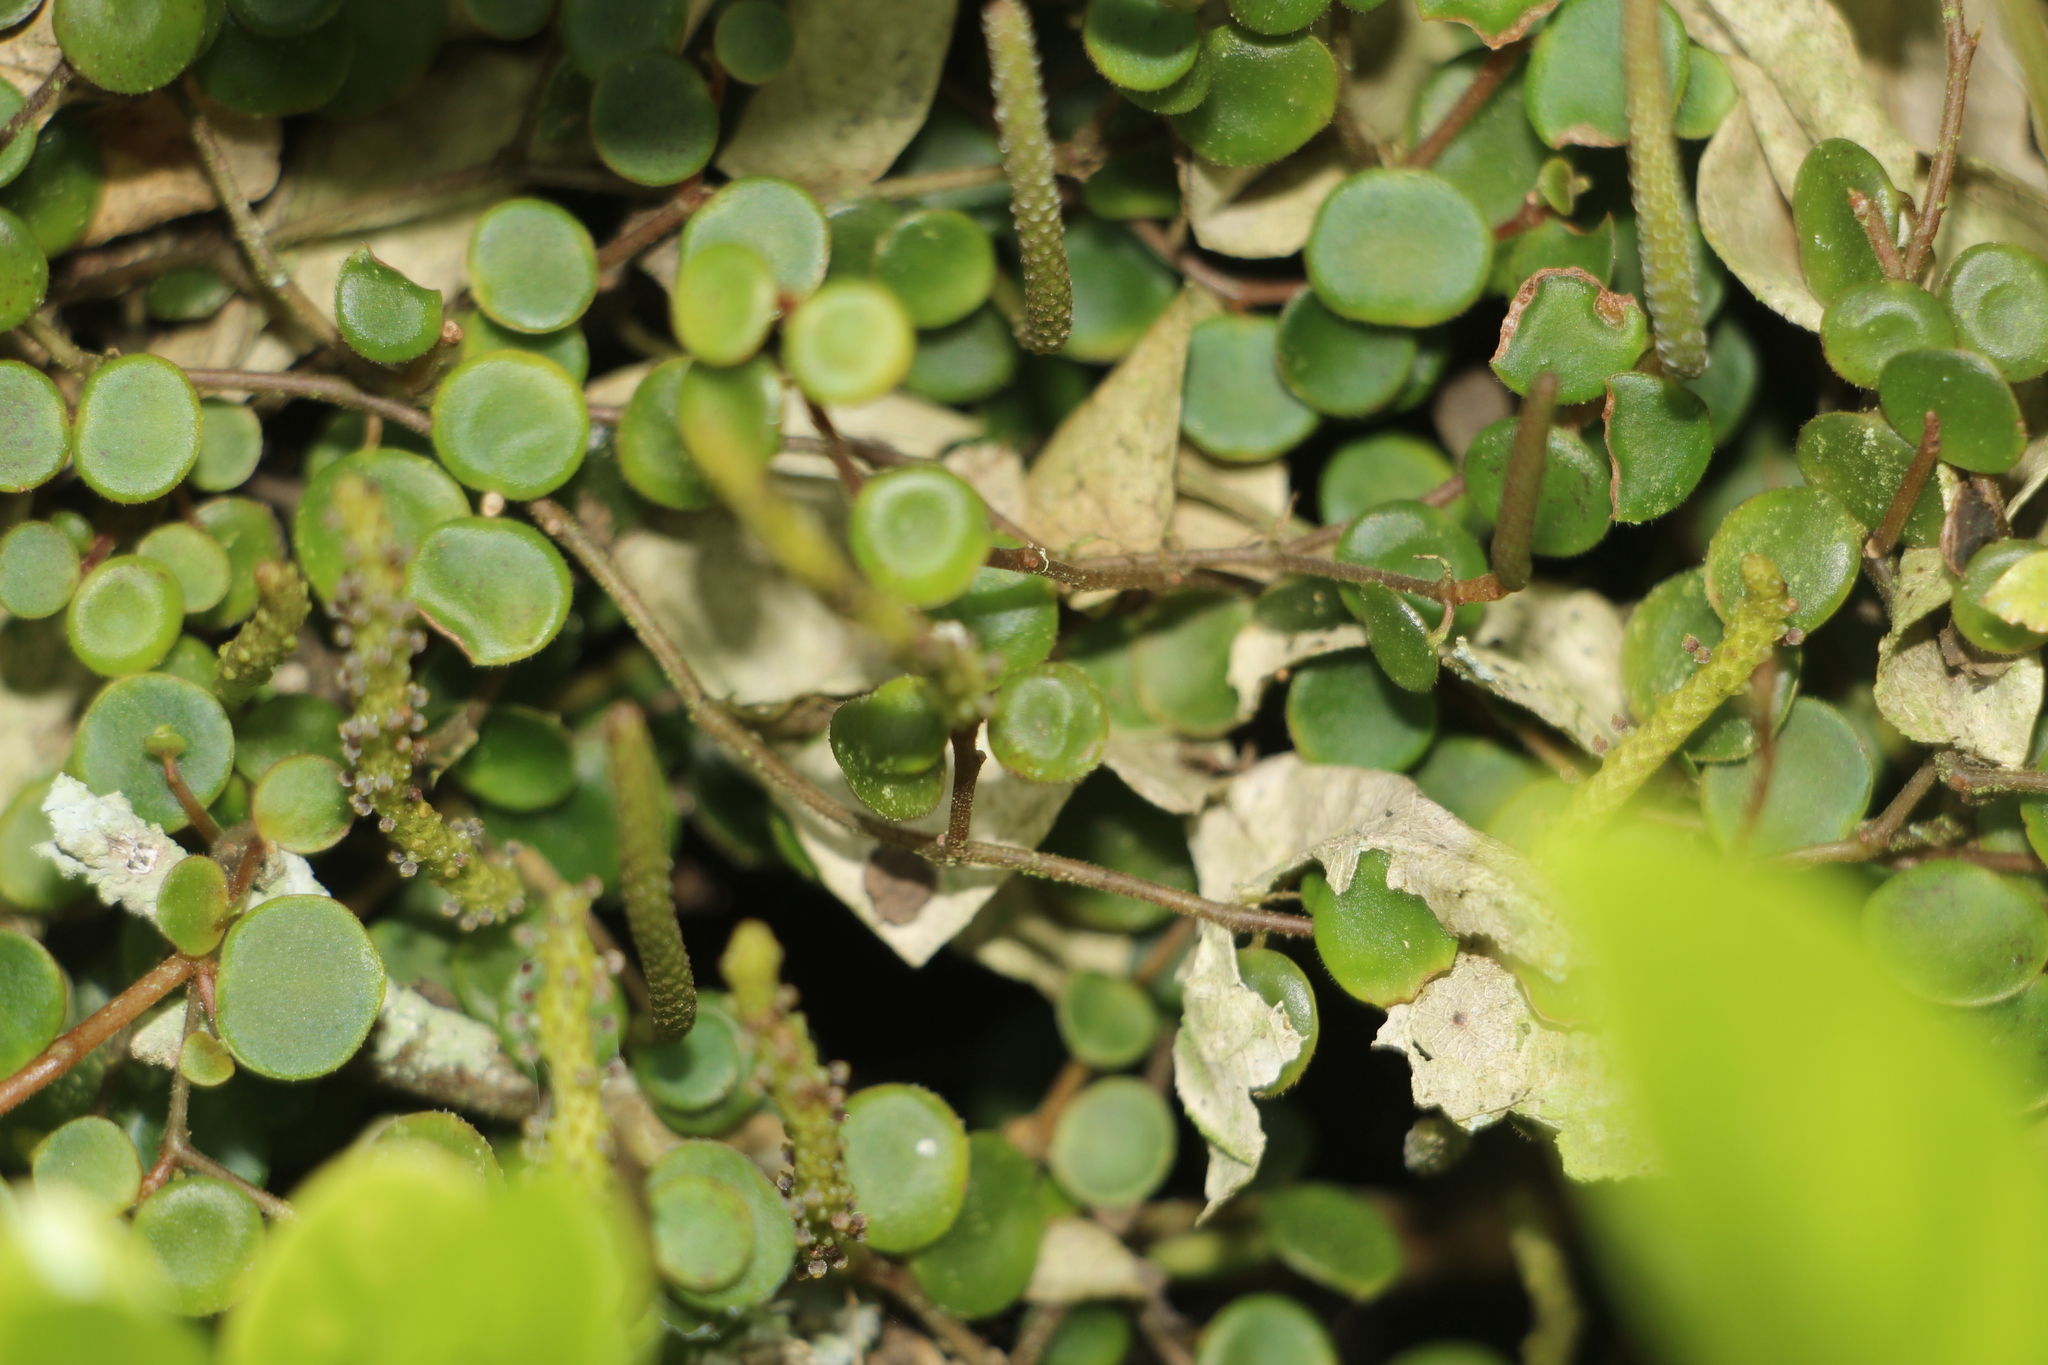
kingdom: Plantae
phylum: Tracheophyta
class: Magnoliopsida
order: Piperales
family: Piperaceae
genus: Peperomia
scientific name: Peperomia rotundifolia
